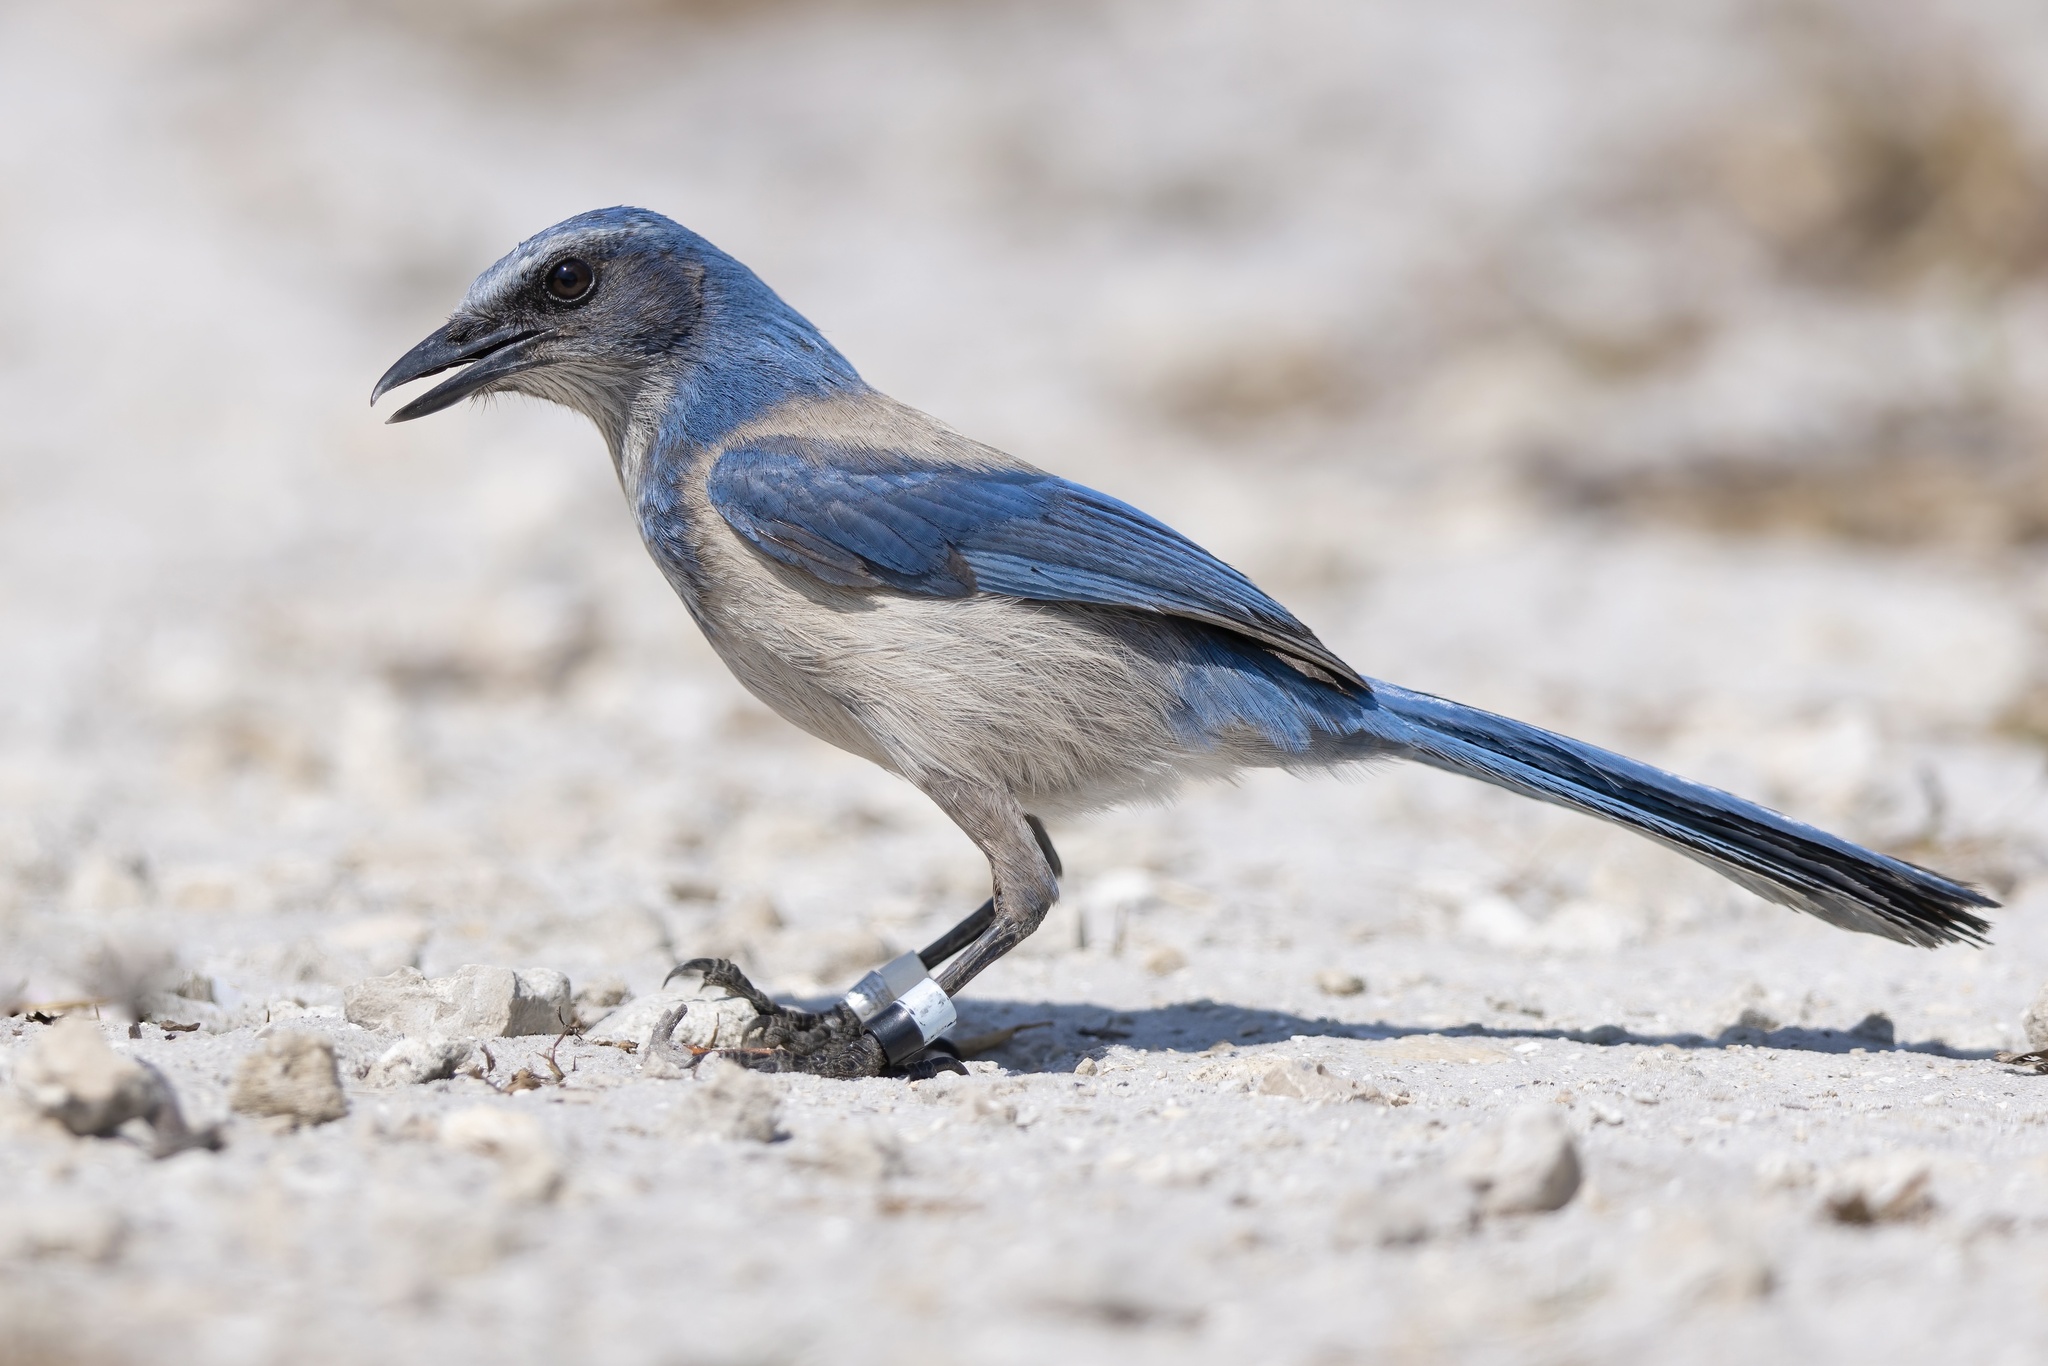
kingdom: Animalia
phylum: Chordata
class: Aves
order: Passeriformes
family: Corvidae
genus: Aphelocoma
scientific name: Aphelocoma coerulescens
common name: Florida scrub jay
